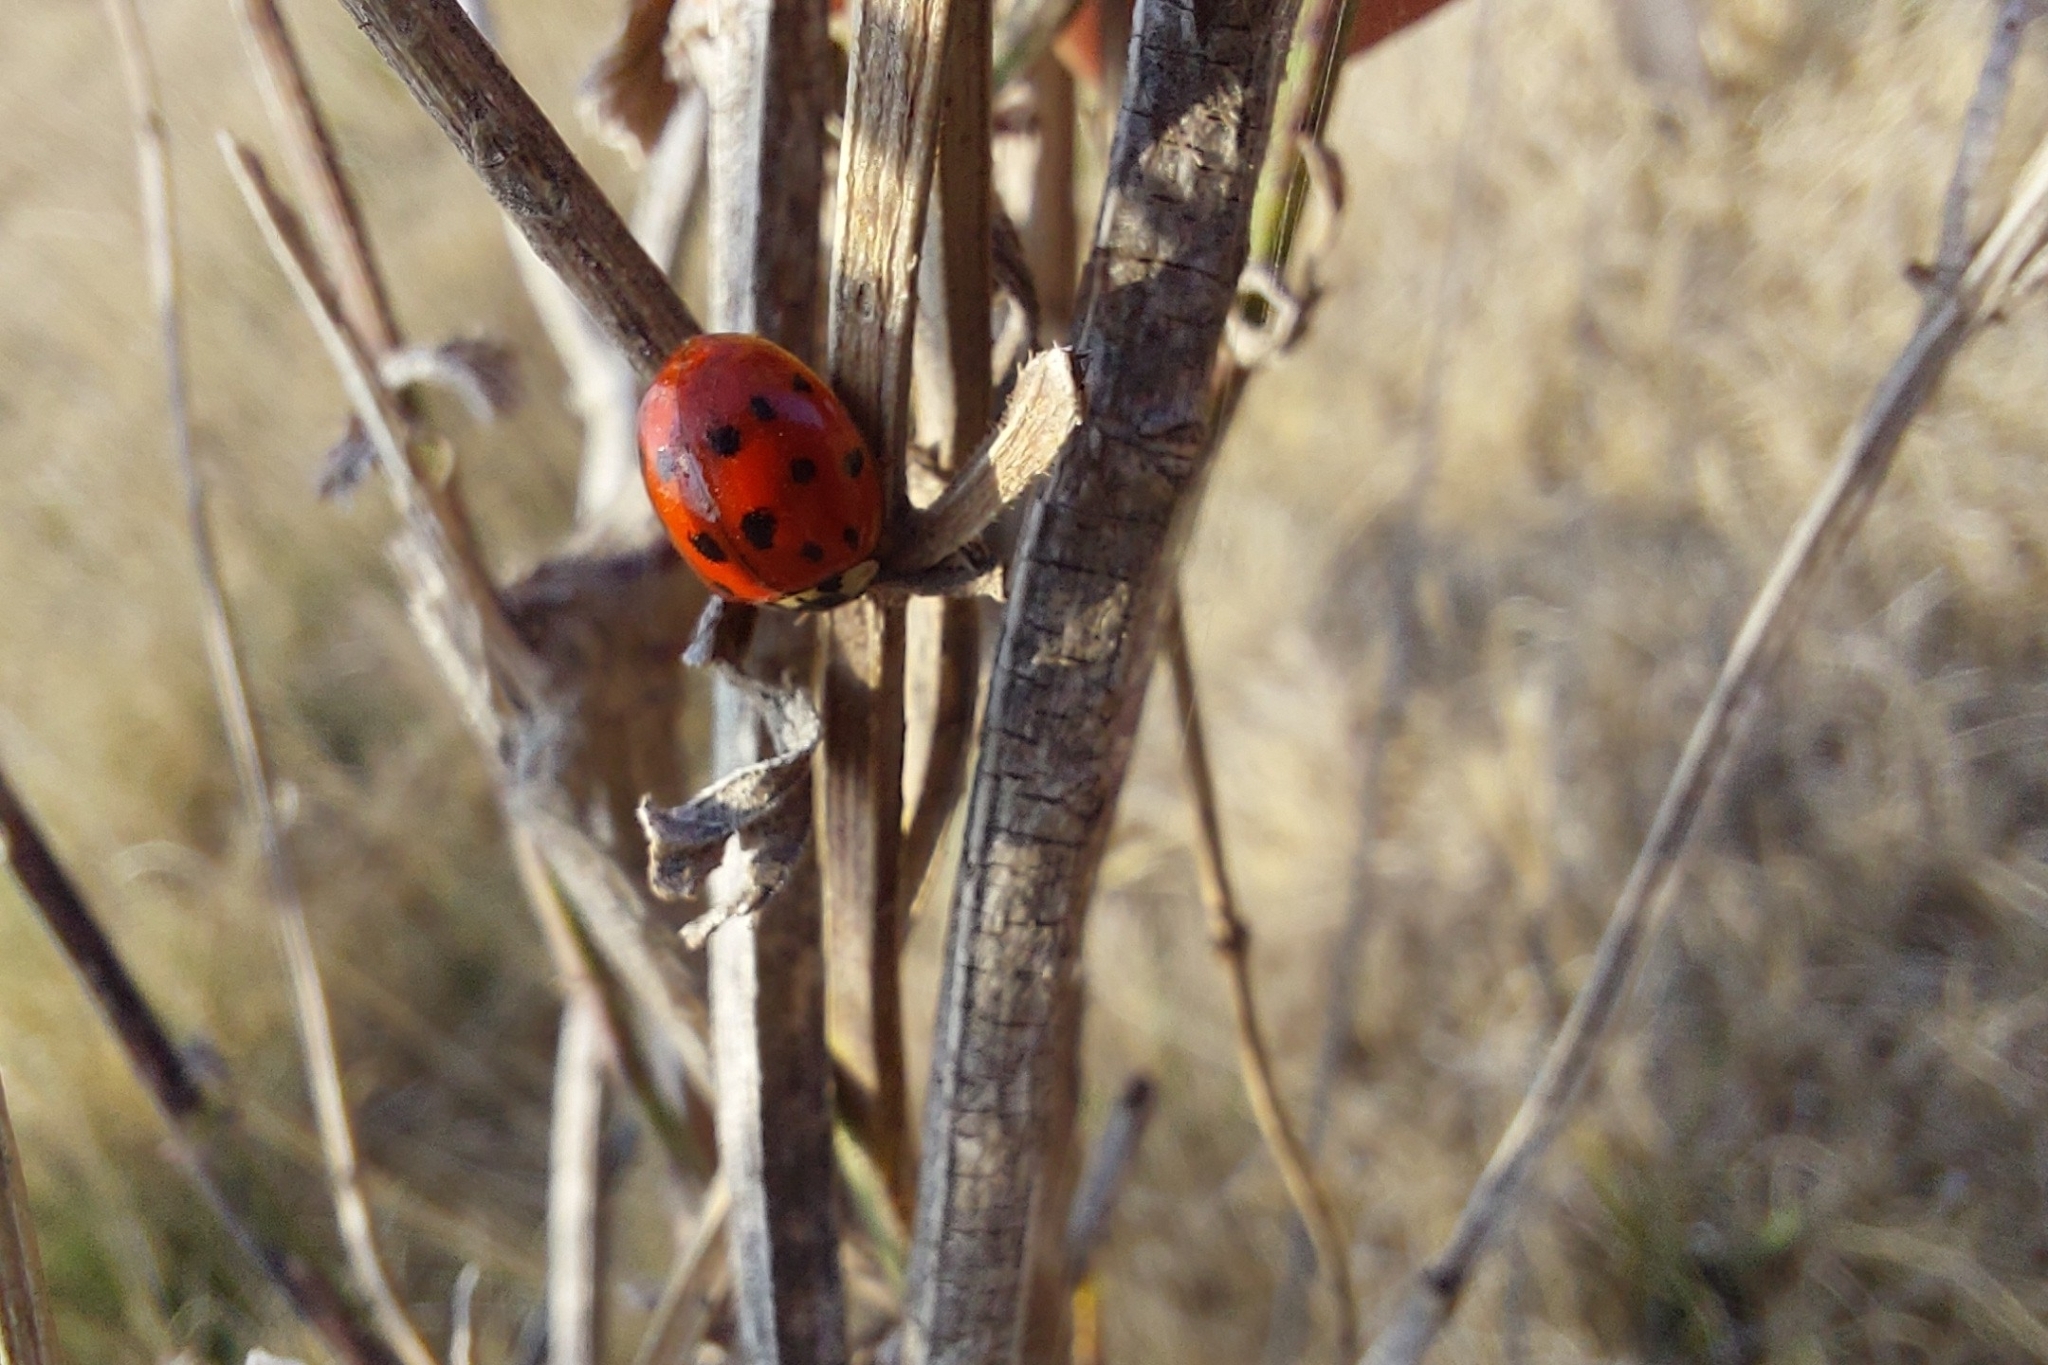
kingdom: Animalia
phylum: Arthropoda
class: Insecta
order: Coleoptera
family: Coccinellidae
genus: Harmonia
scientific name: Harmonia axyridis
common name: Harlequin ladybird
